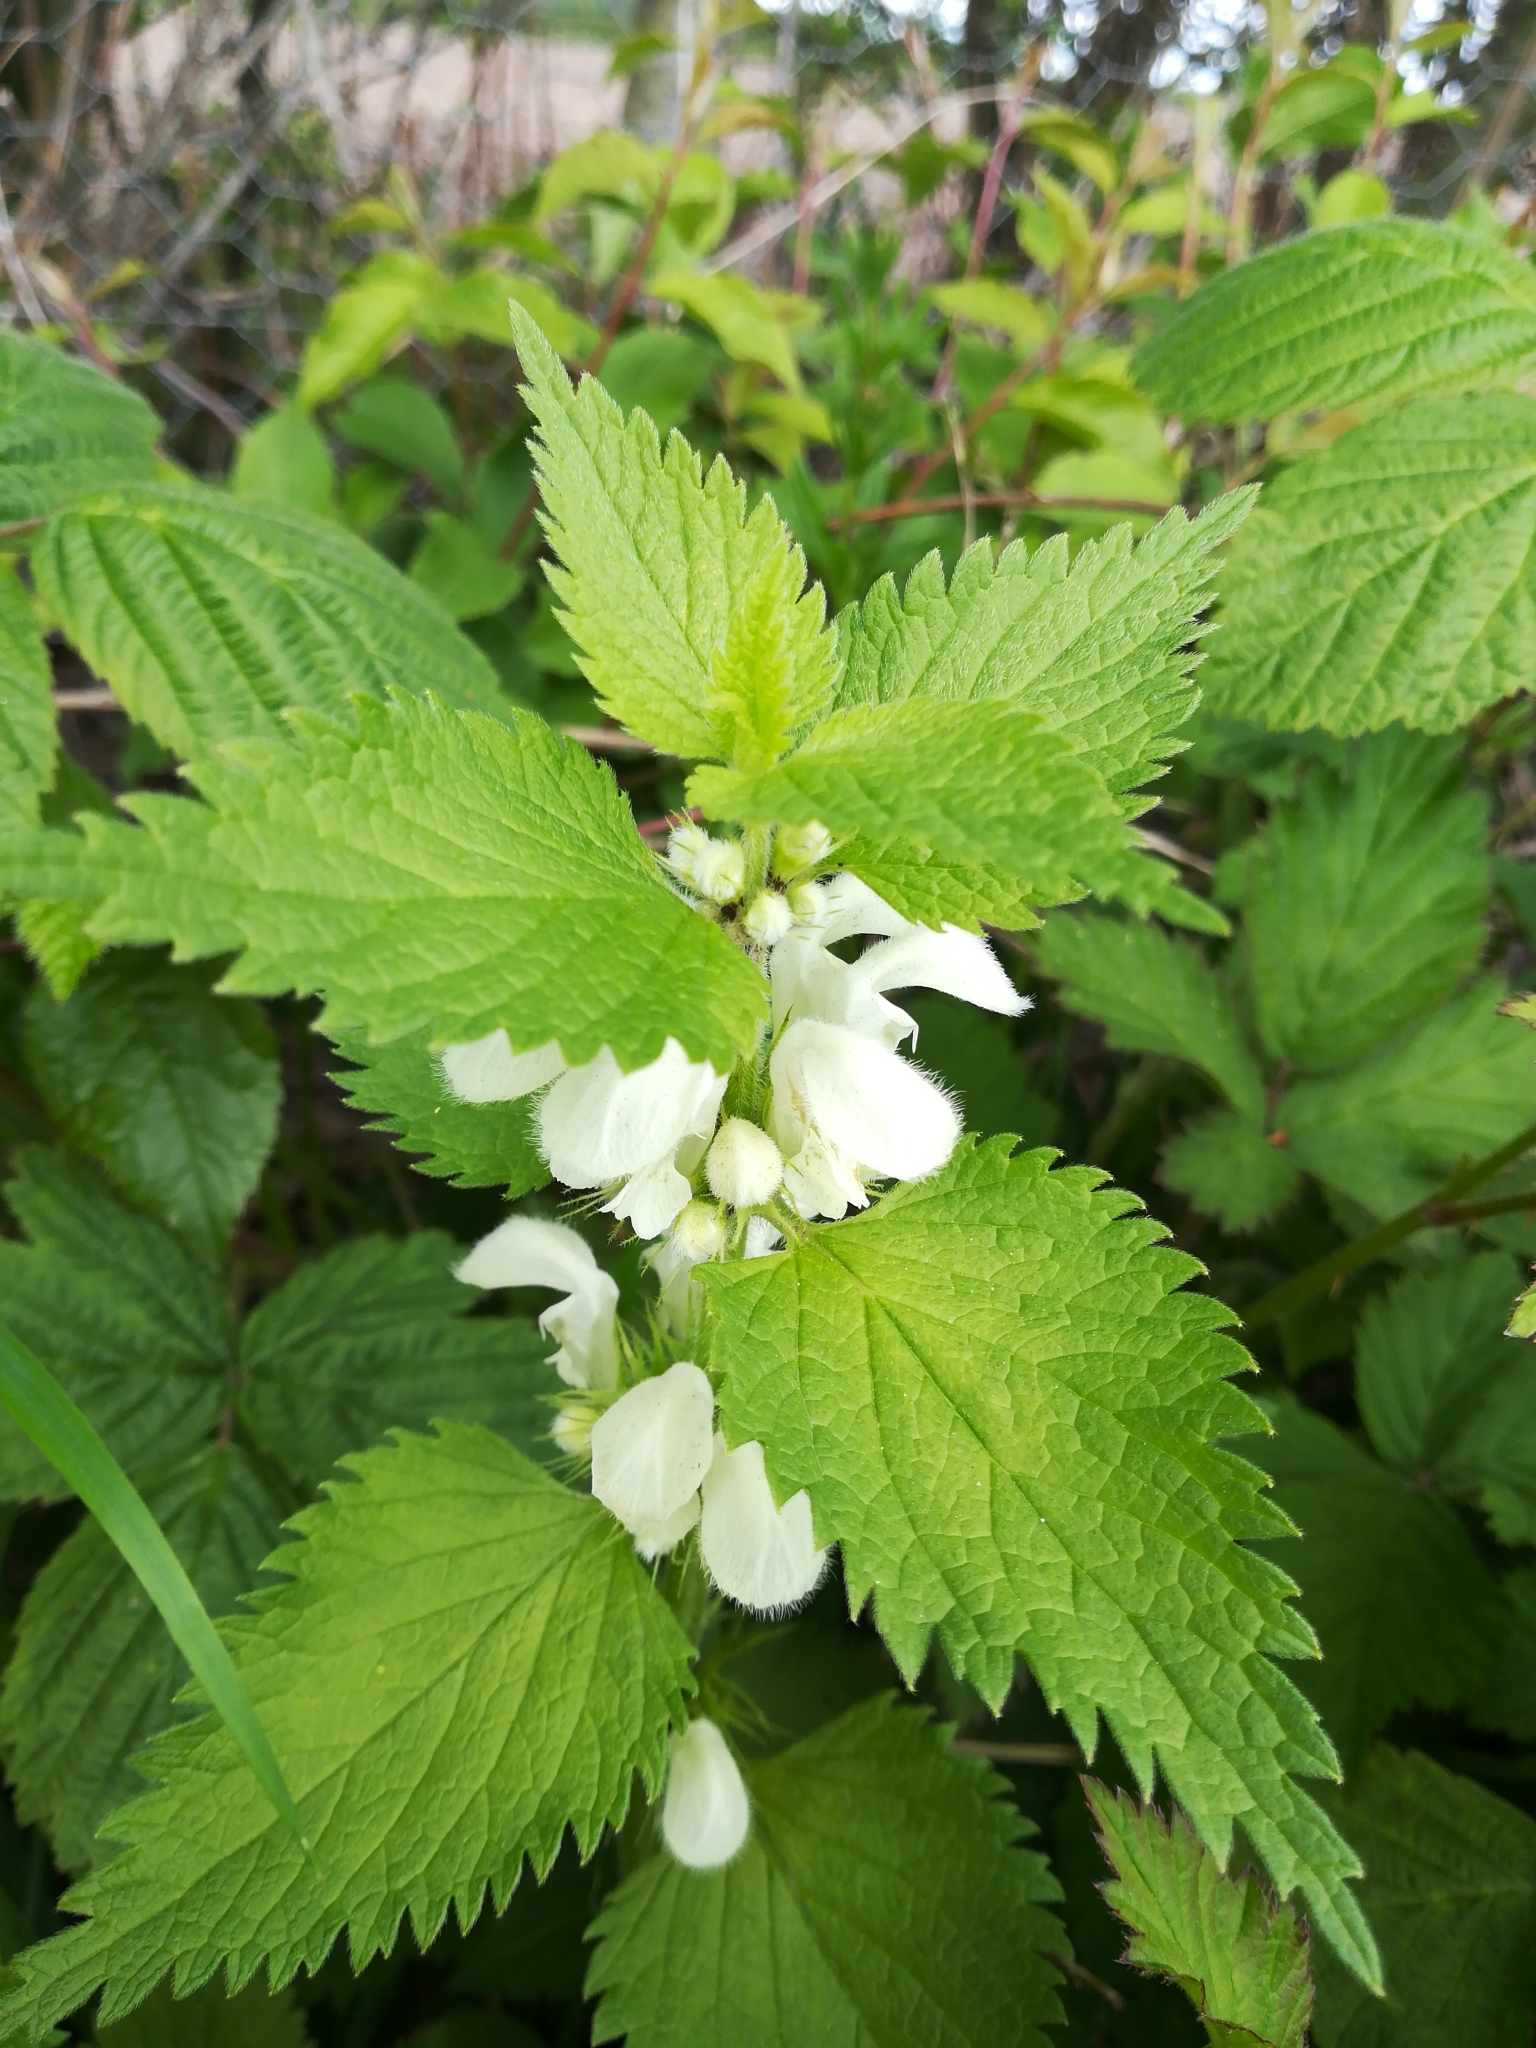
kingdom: Plantae
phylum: Tracheophyta
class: Magnoliopsida
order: Lamiales
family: Lamiaceae
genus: Lamium
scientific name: Lamium album
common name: White dead-nettle
